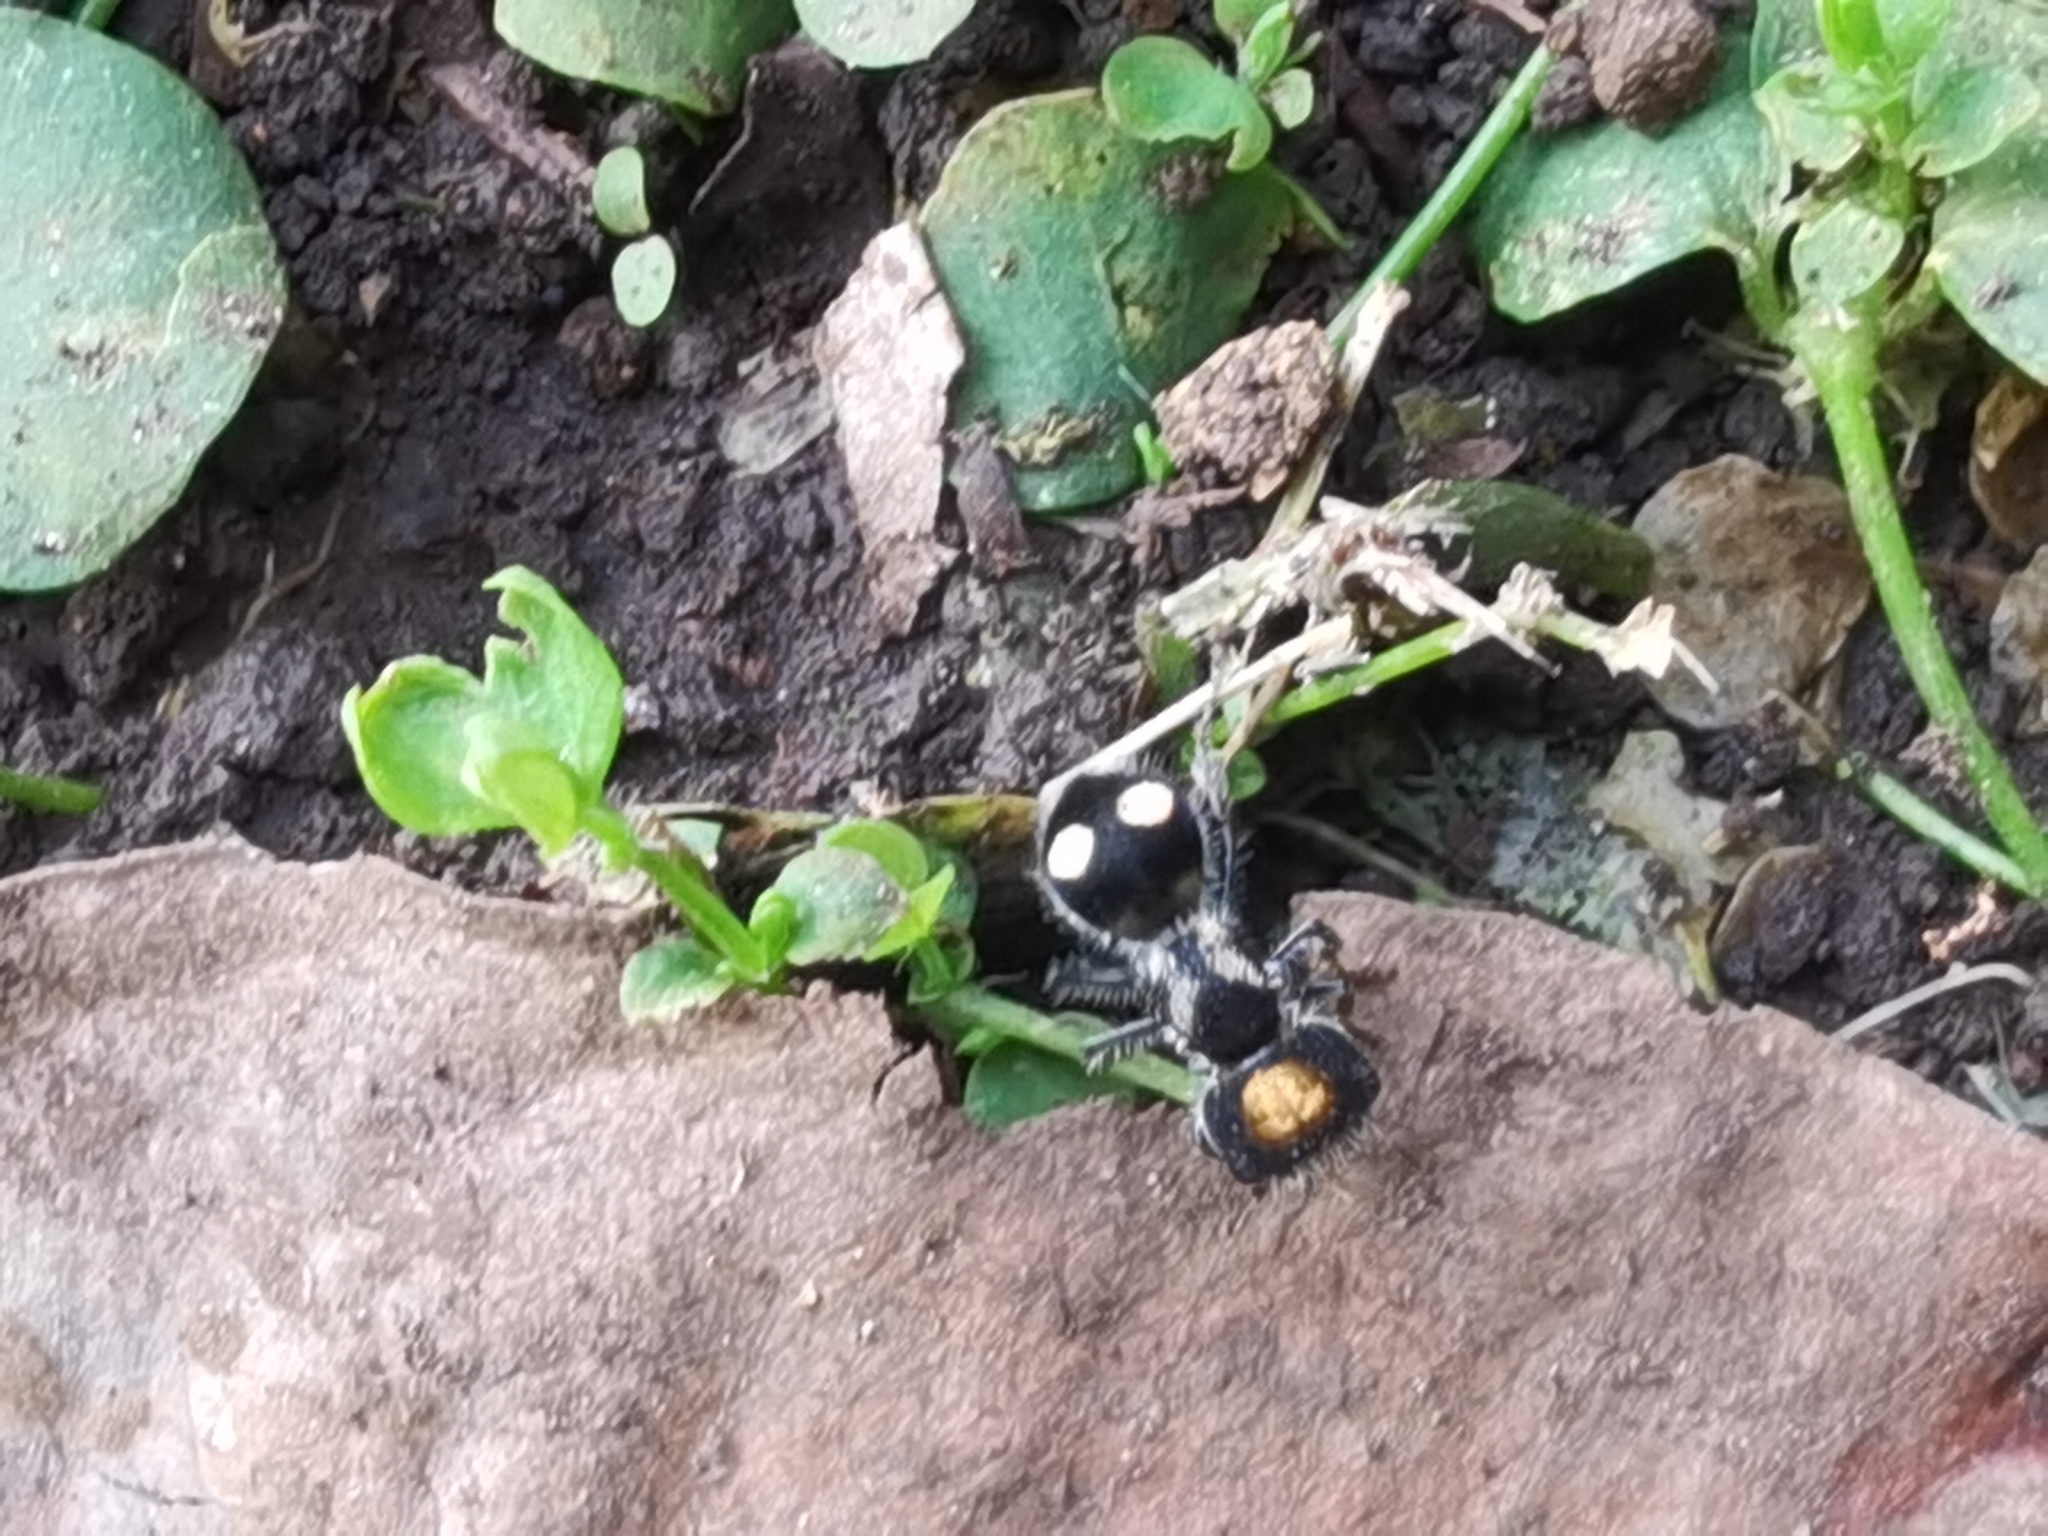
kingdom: Animalia
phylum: Arthropoda
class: Insecta
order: Hymenoptera
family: Mutillidae
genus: Hoplognathoca
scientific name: Hoplognathoca costarricensis
